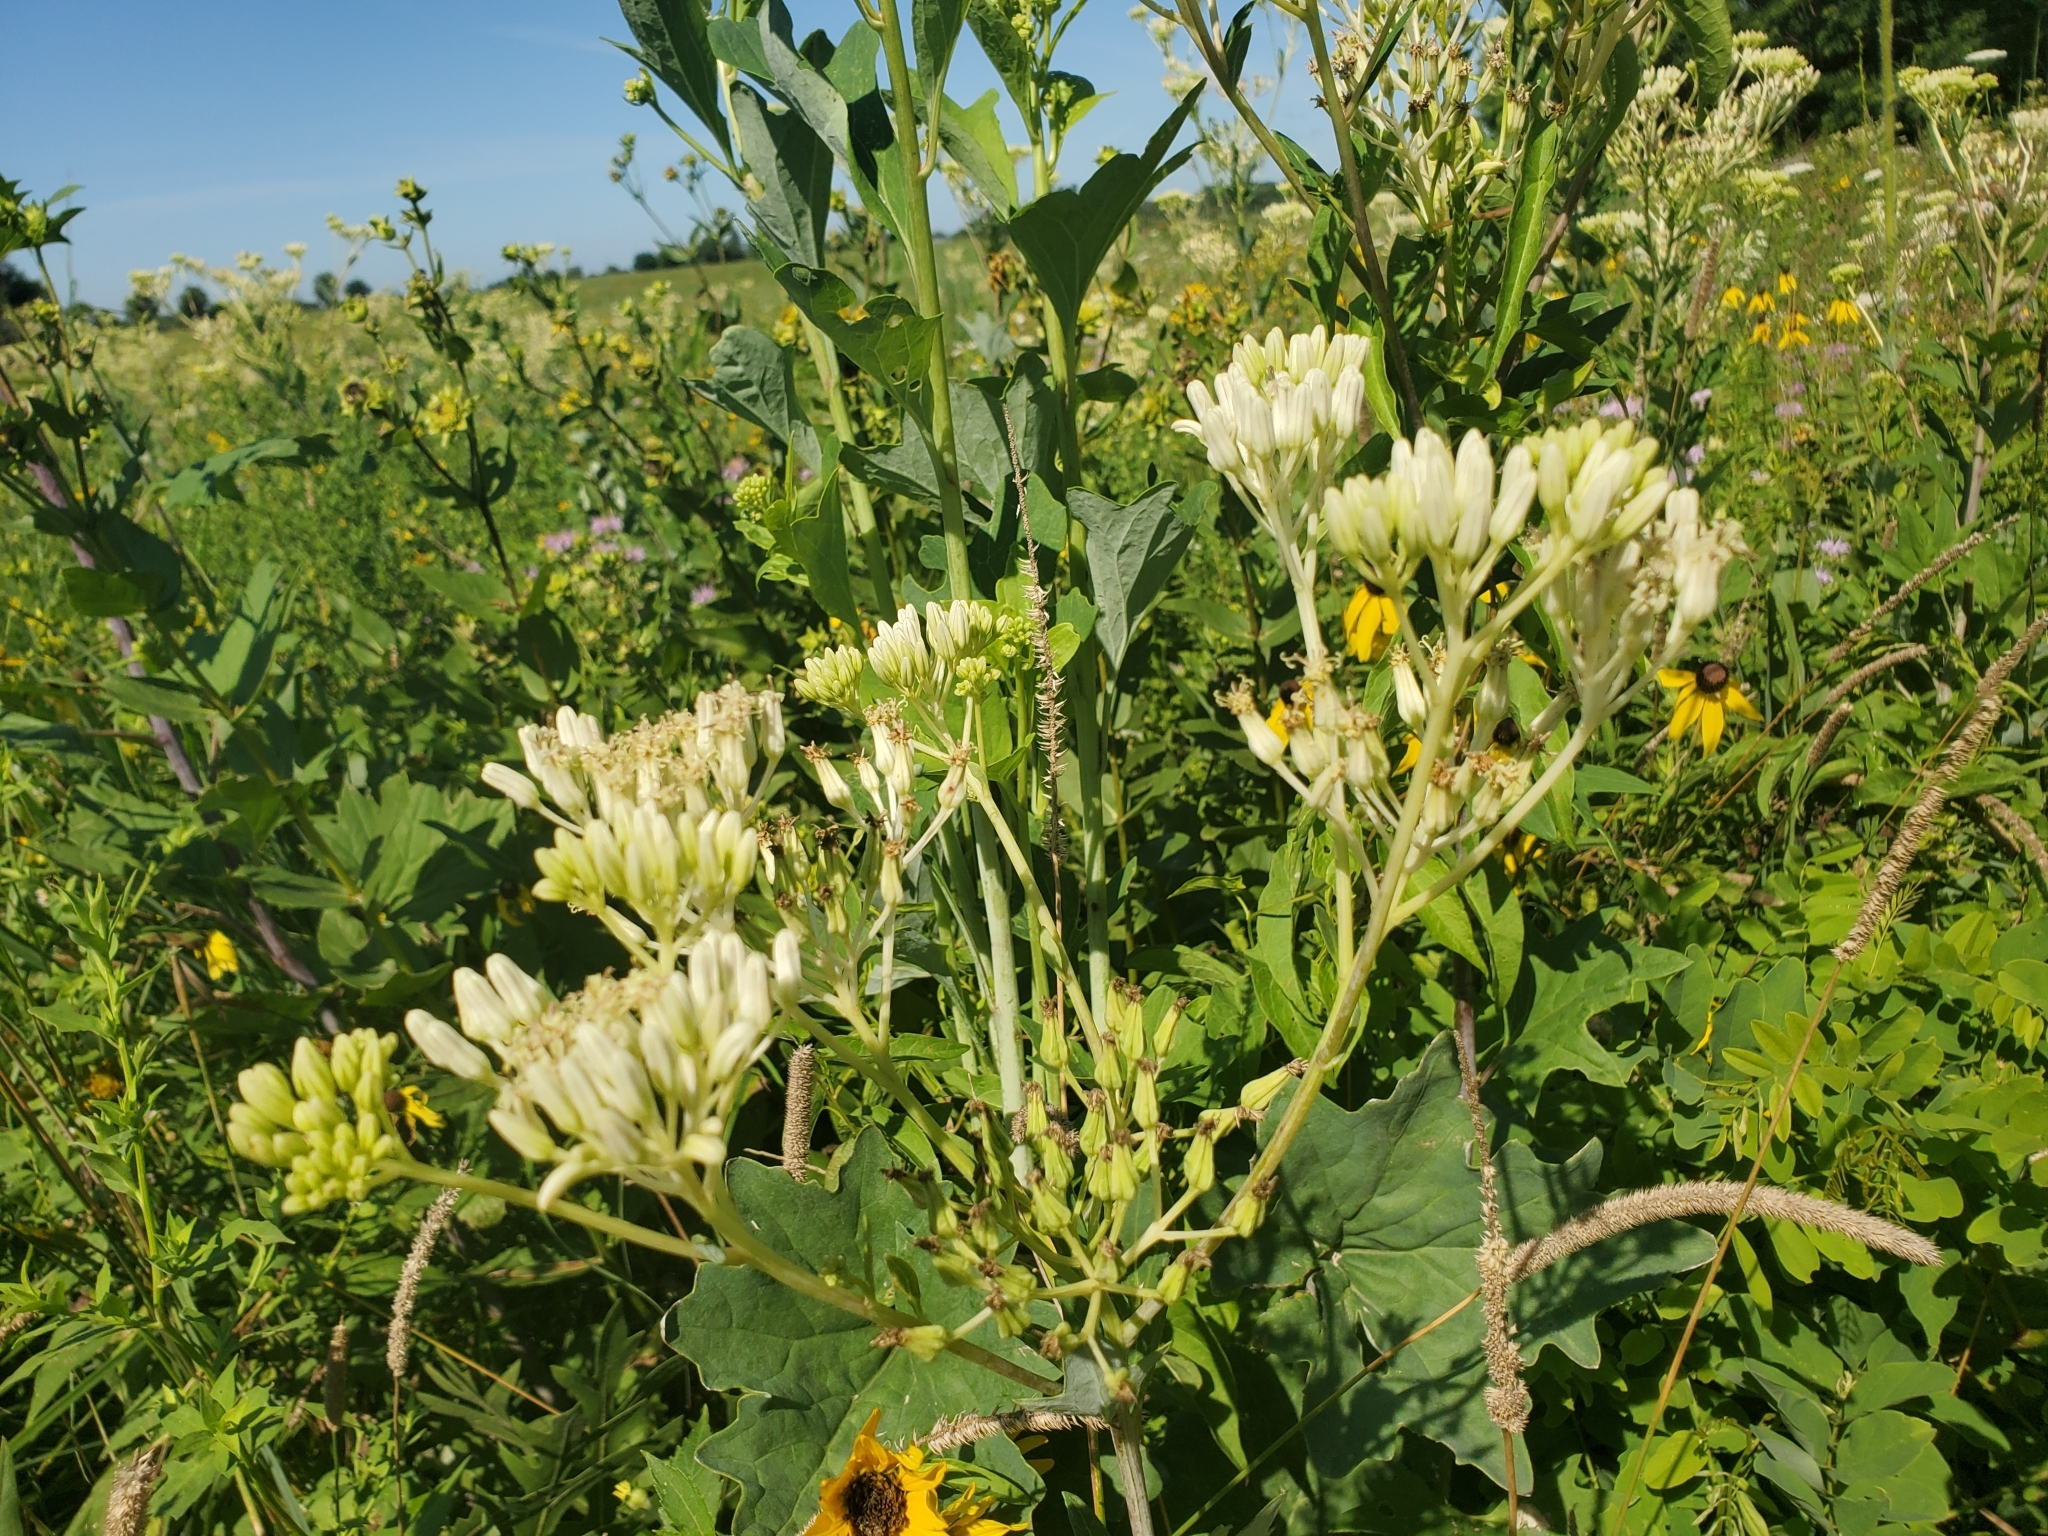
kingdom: Plantae
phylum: Tracheophyta
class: Magnoliopsida
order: Asterales
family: Asteraceae
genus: Arnoglossum
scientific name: Arnoglossum atriplicifolium
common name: Pale indian-plantain
